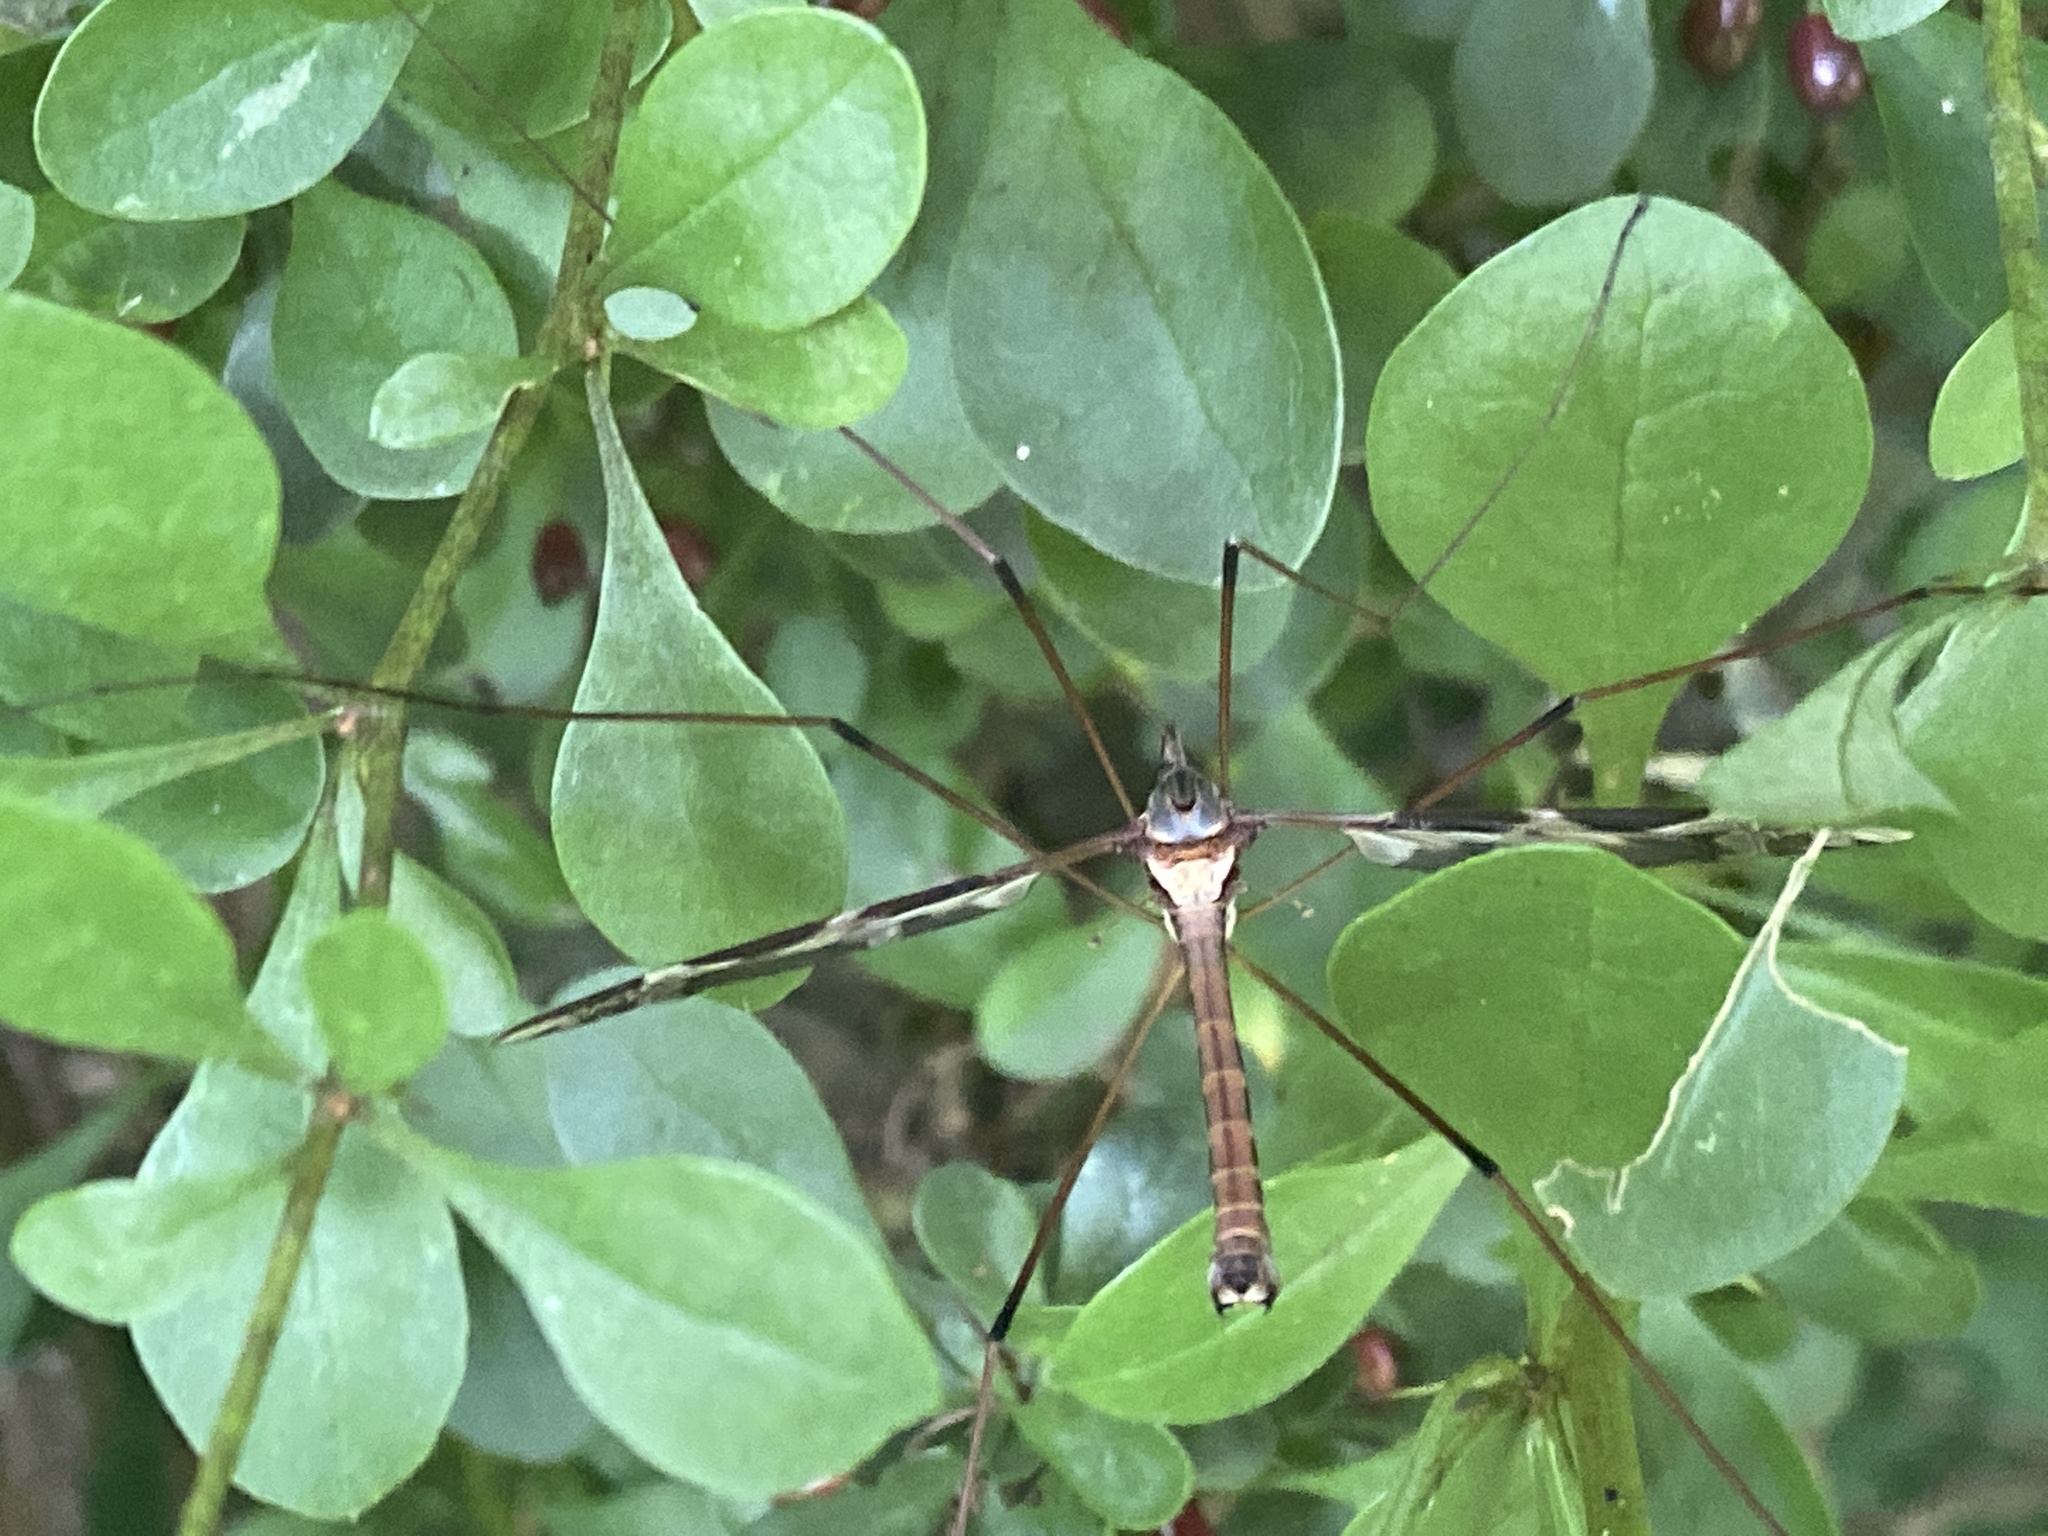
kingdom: Animalia
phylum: Arthropoda
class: Insecta
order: Diptera
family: Tipulidae
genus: Tipula
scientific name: Tipula maxima
